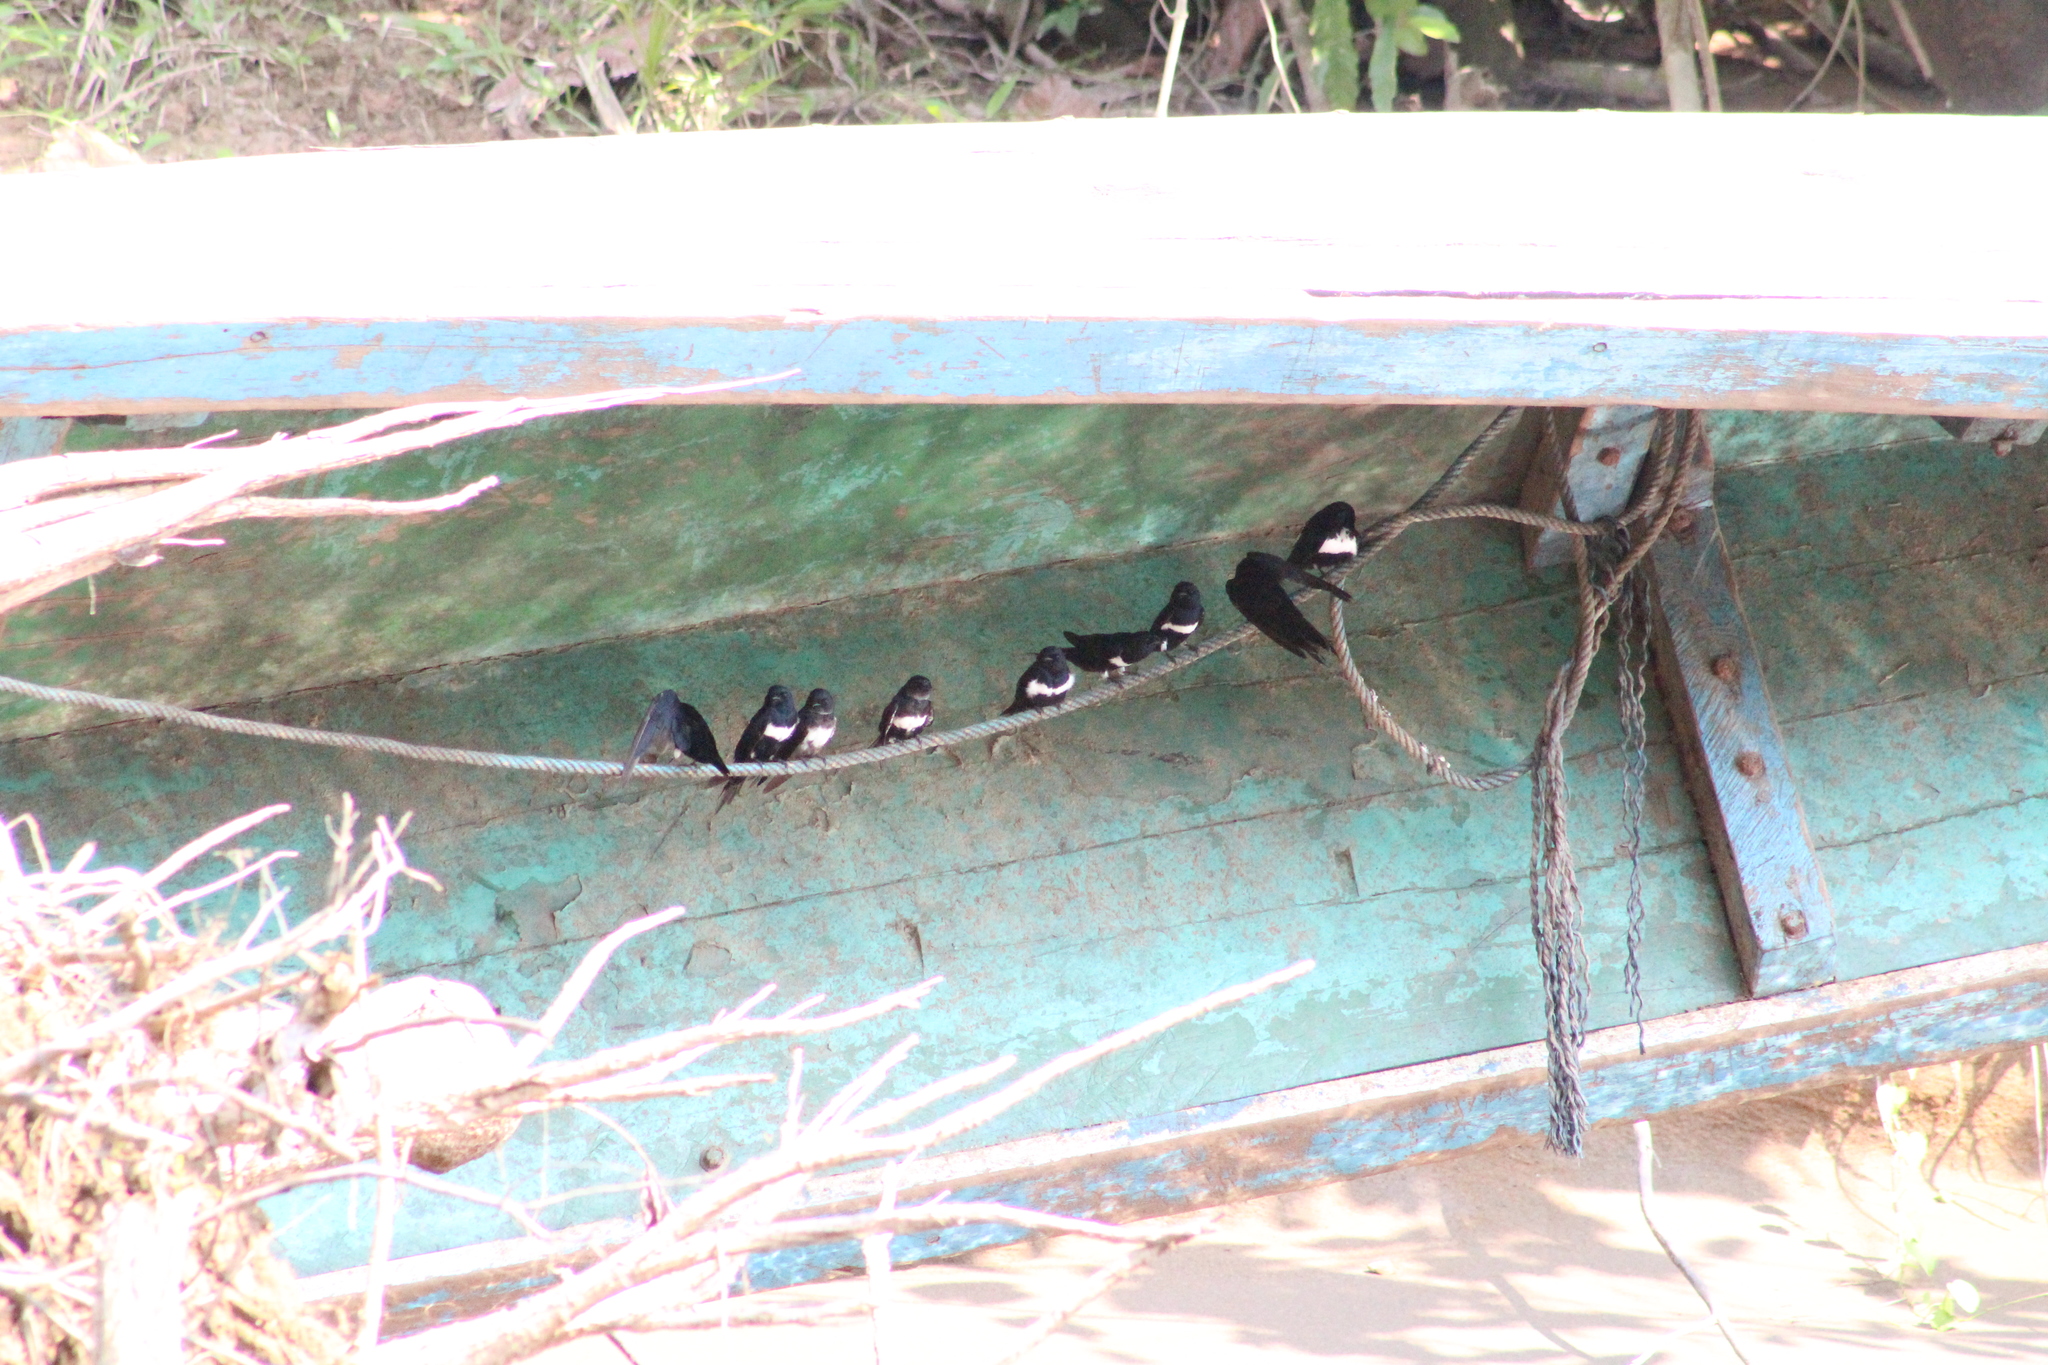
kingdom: Animalia
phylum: Chordata
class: Aves
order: Passeriformes
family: Hirundinidae
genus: Atticora
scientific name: Atticora fasciata
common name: White-banded swallow
